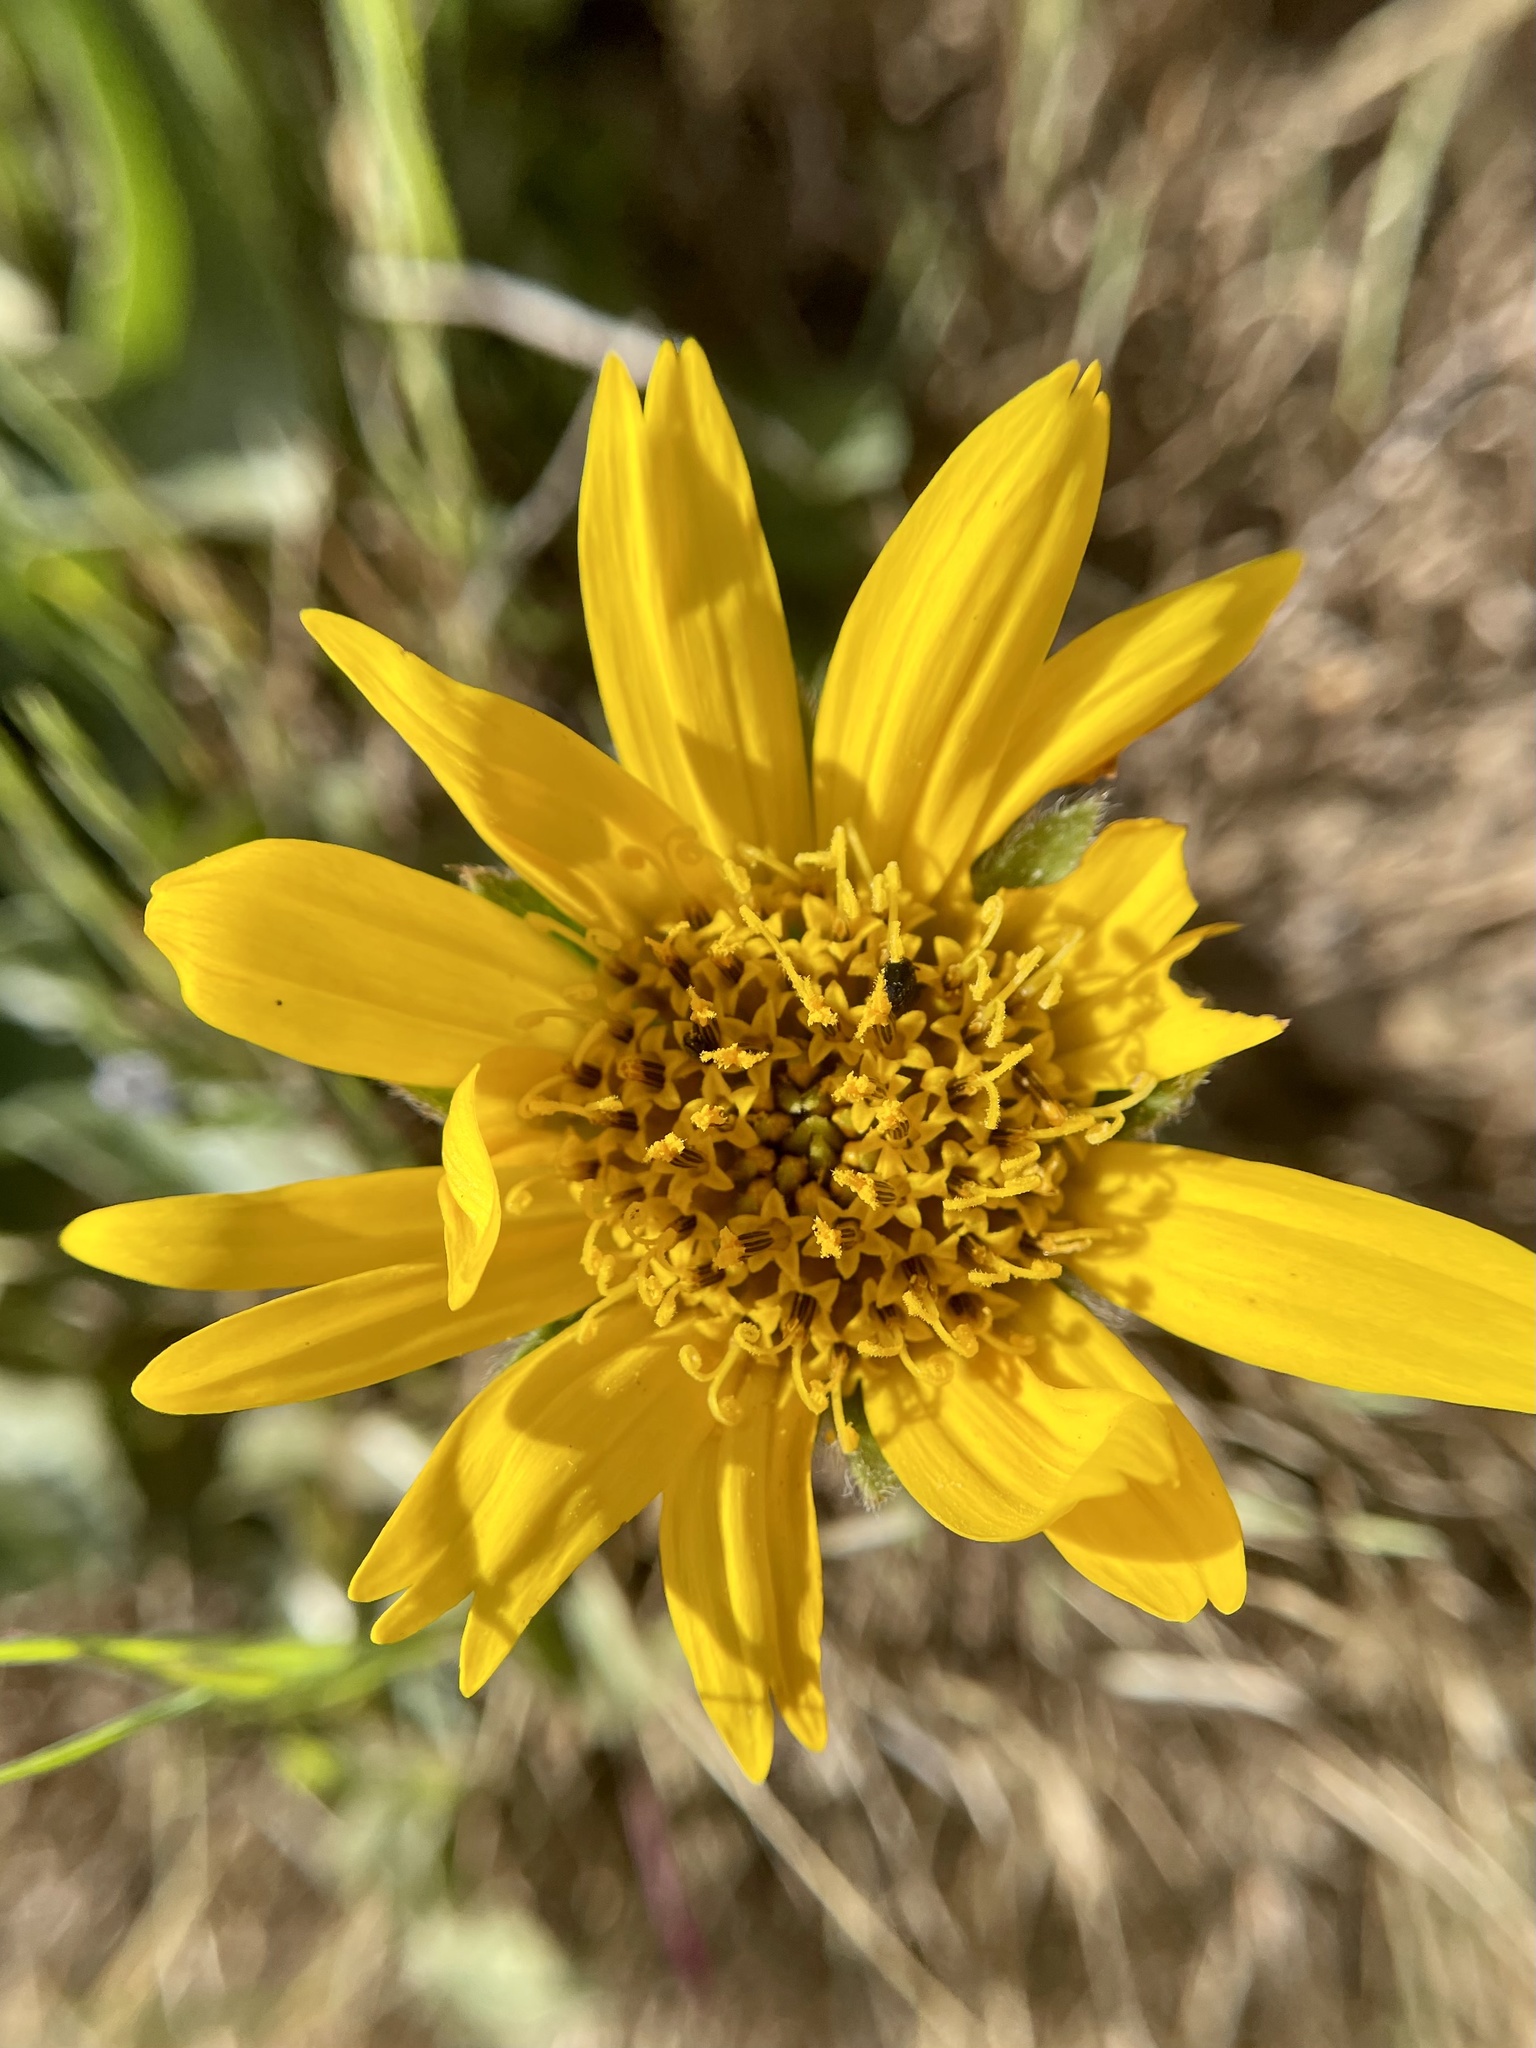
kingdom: Plantae
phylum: Tracheophyta
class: Magnoliopsida
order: Asterales
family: Asteraceae
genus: Wyethia
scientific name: Wyethia angustifolia
